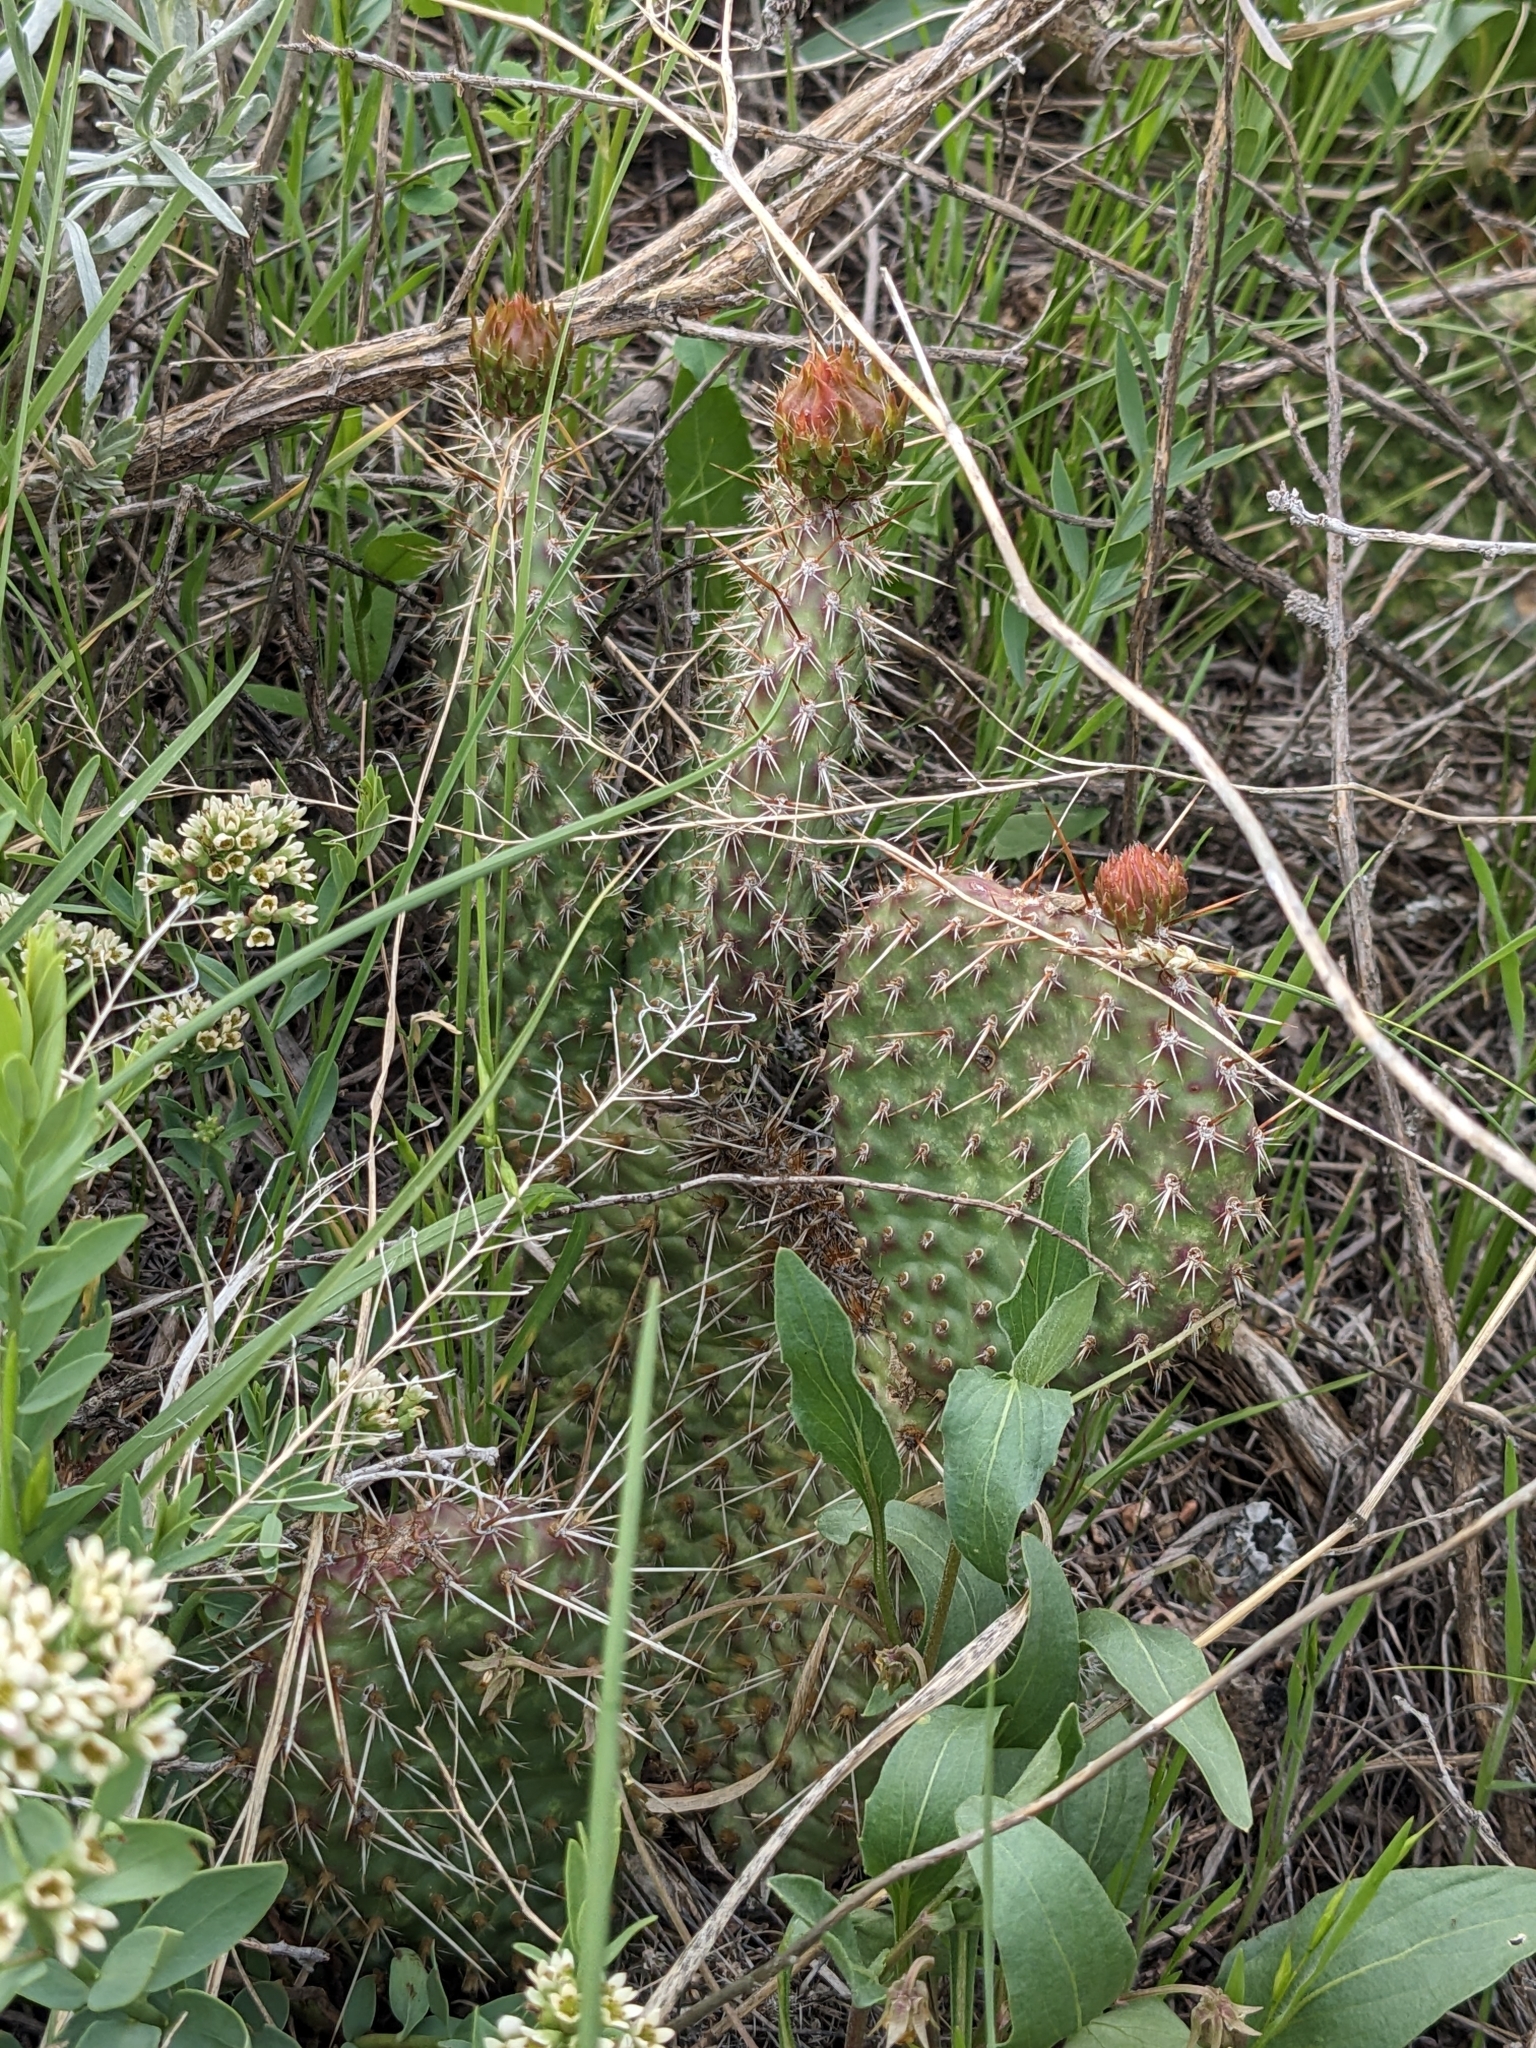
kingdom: Plantae
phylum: Tracheophyta
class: Magnoliopsida
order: Caryophyllales
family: Cactaceae
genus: Opuntia
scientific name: Opuntia polyacantha
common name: Plains prickly-pear
